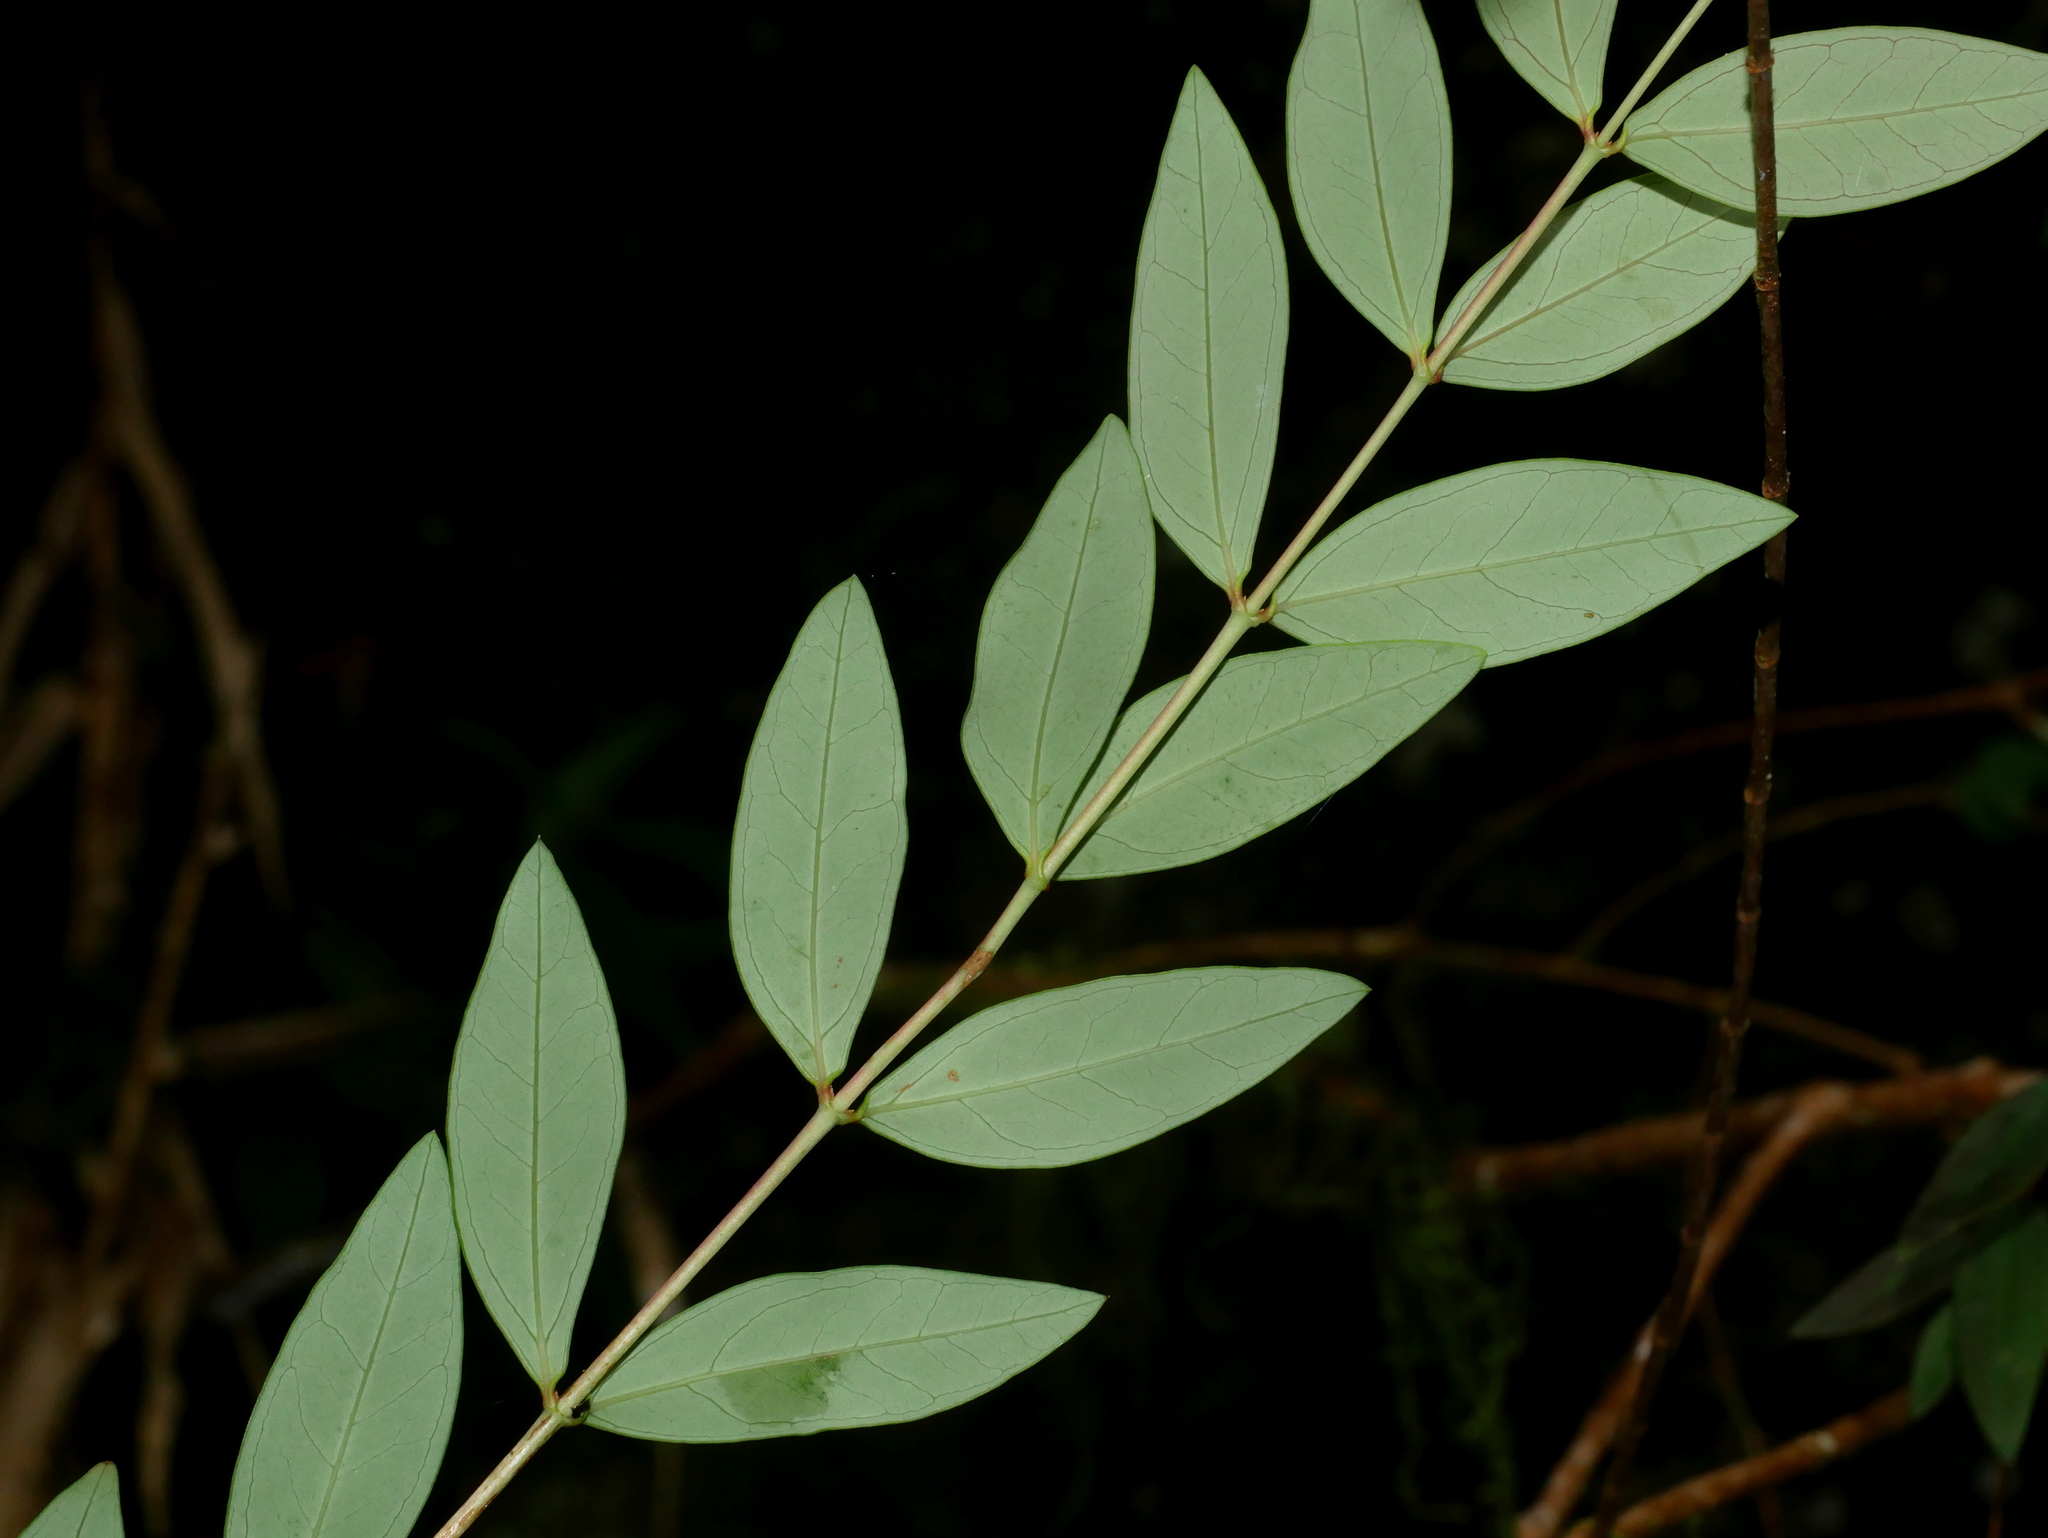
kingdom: Plantae
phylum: Tracheophyta
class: Magnoliopsida
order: Malpighiales
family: Hypericaceae
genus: Hypericum
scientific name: Hypericum geminiflorum
